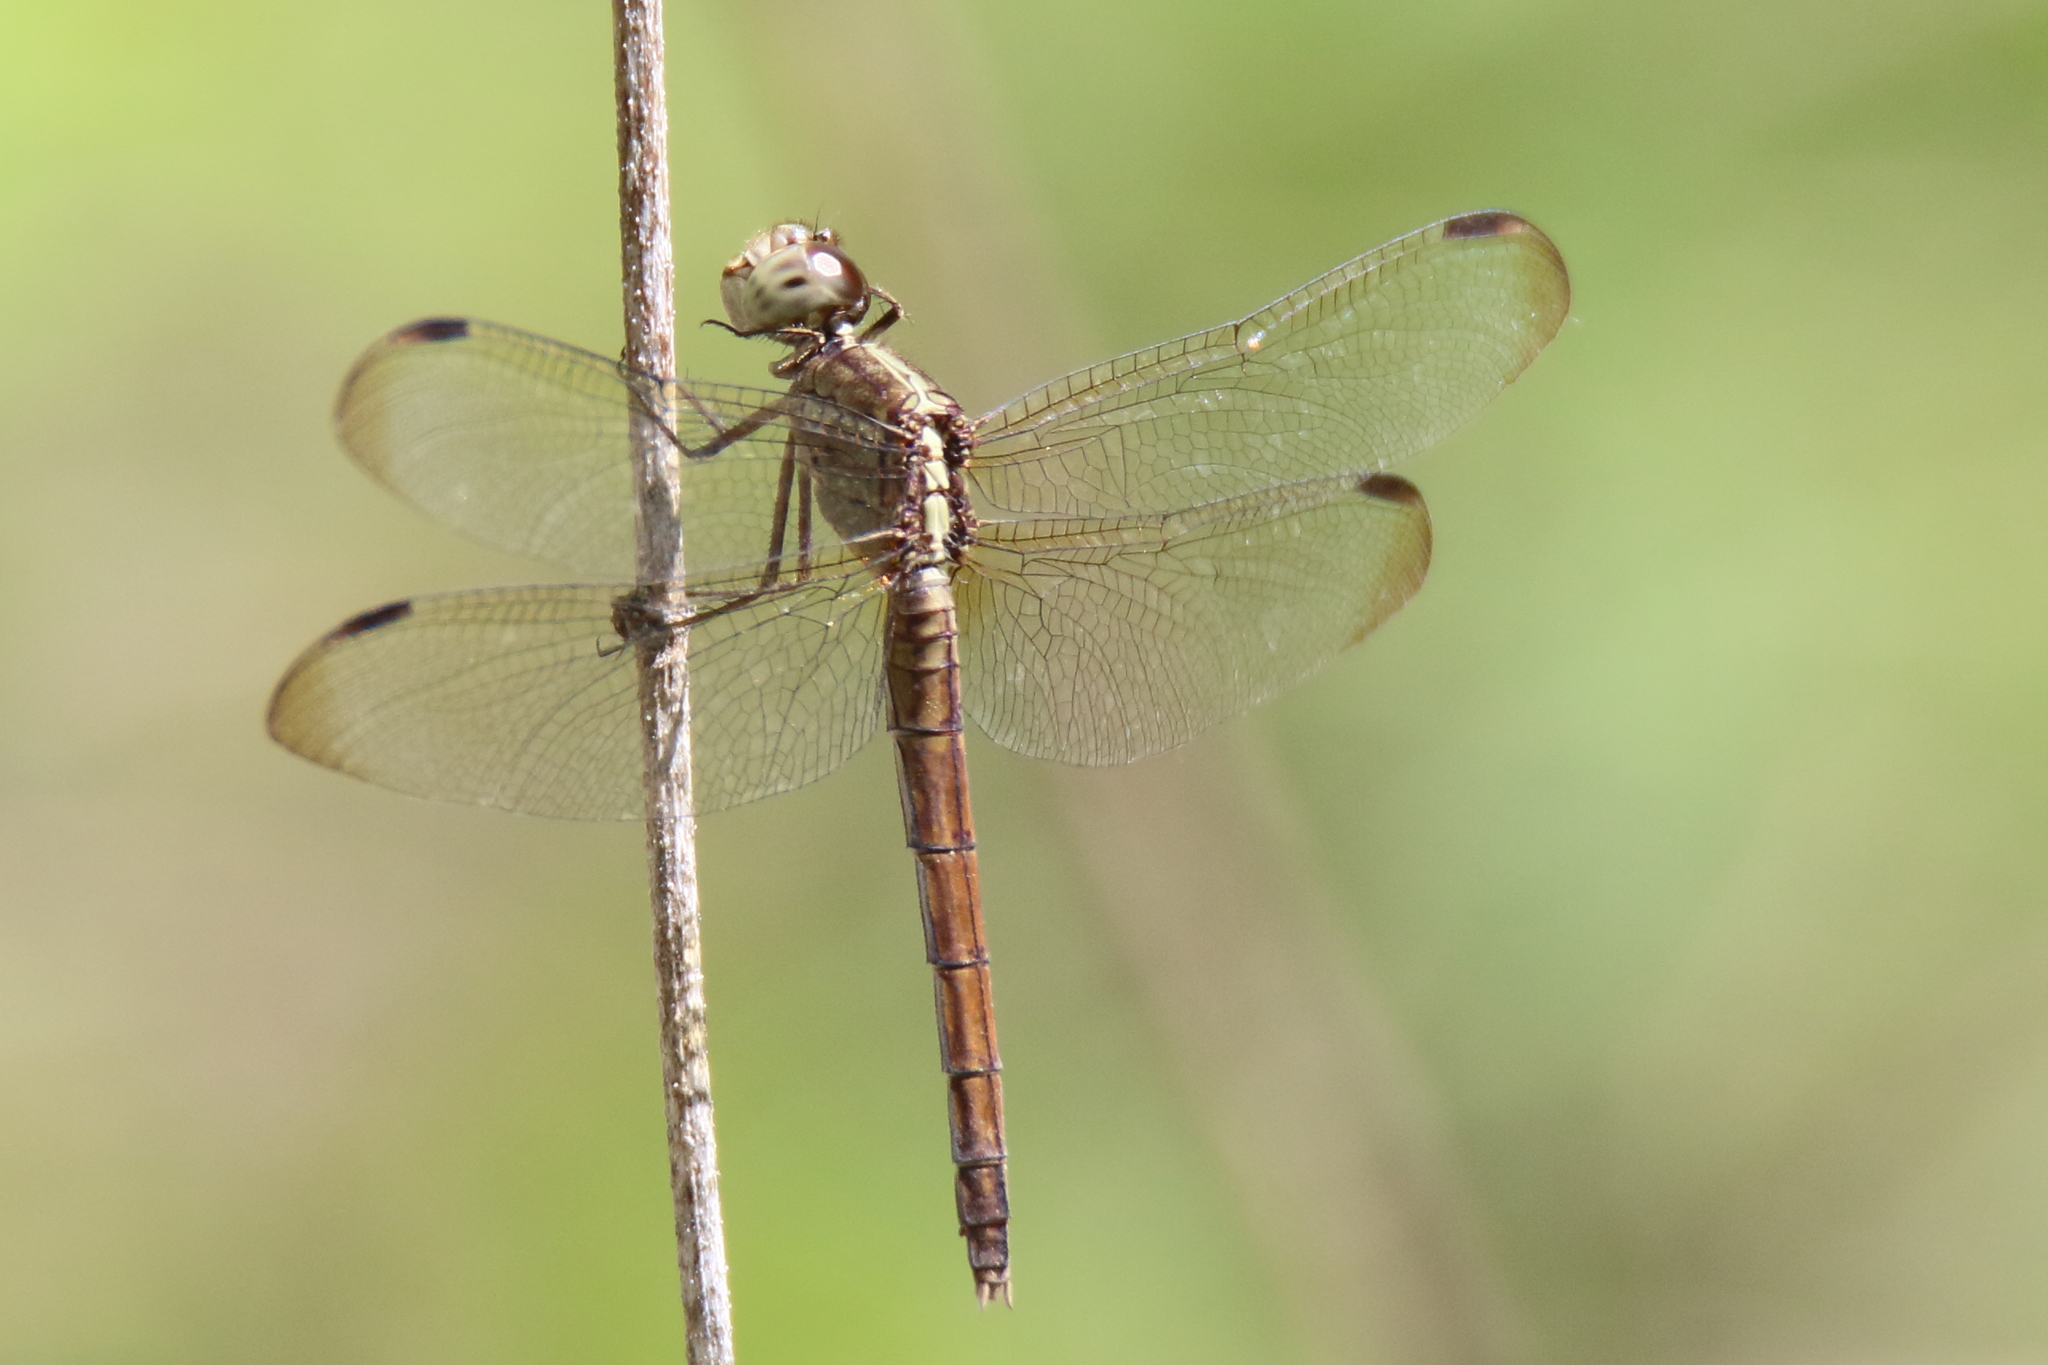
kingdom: Animalia
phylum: Arthropoda
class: Insecta
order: Odonata
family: Libellulidae
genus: Erythrodiplax
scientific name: Erythrodiplax umbrata
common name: Band-winged dragonlet
